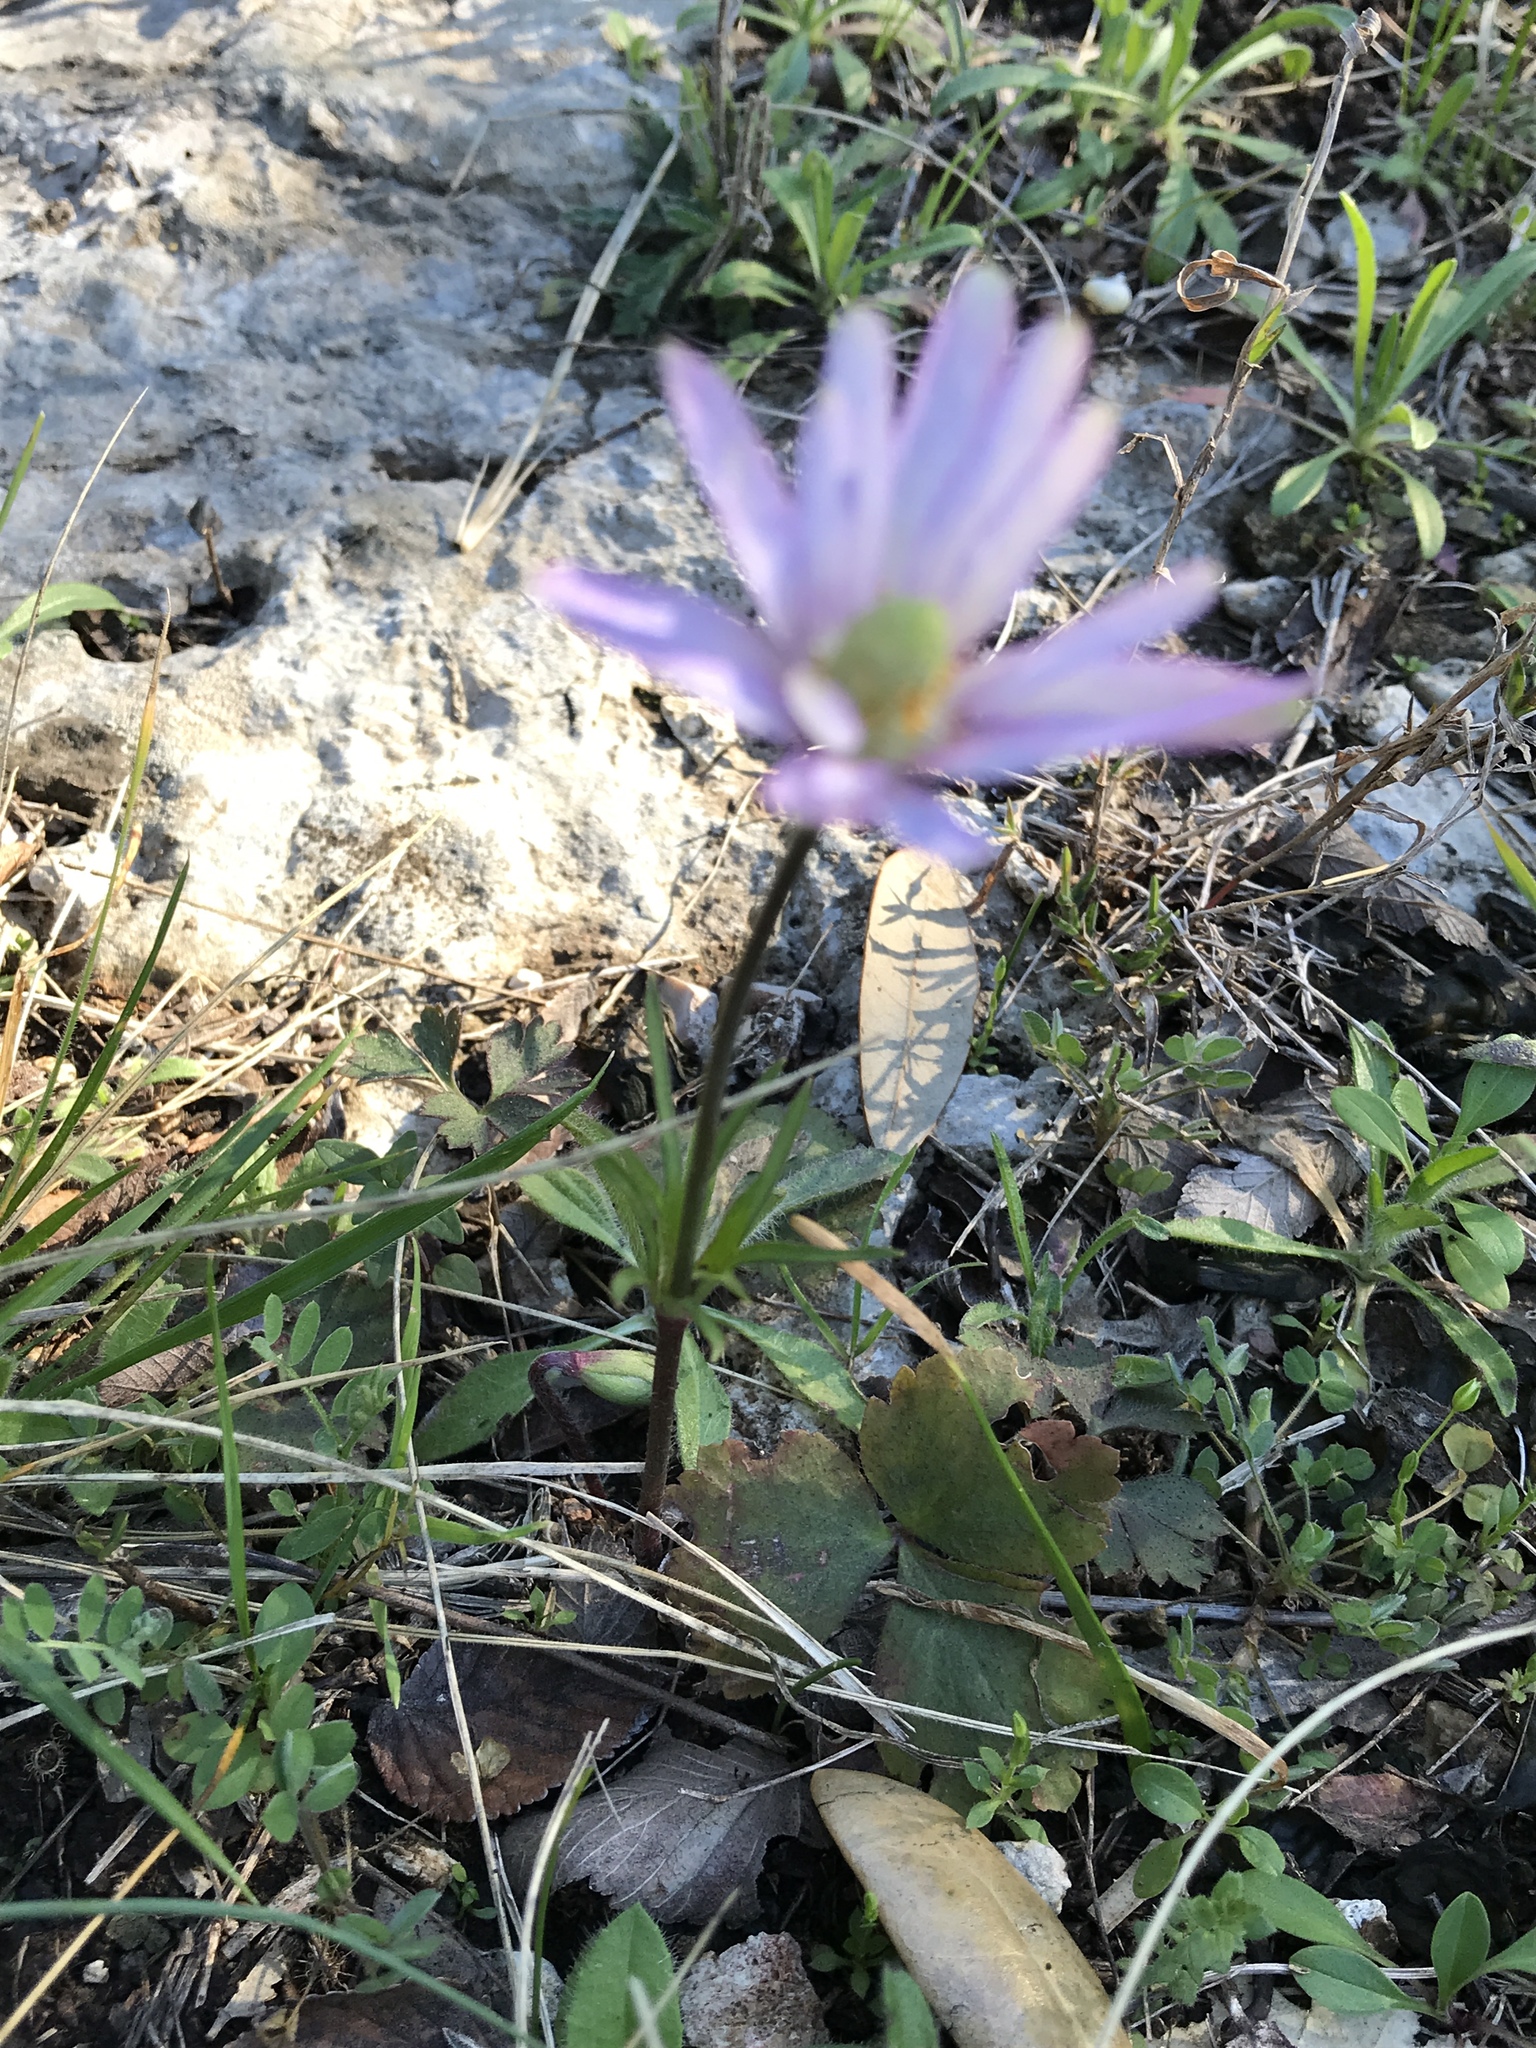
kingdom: Plantae
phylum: Tracheophyta
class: Magnoliopsida
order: Ranunculales
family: Ranunculaceae
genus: Anemone
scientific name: Anemone berlandieri
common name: Ten-petal anemone
